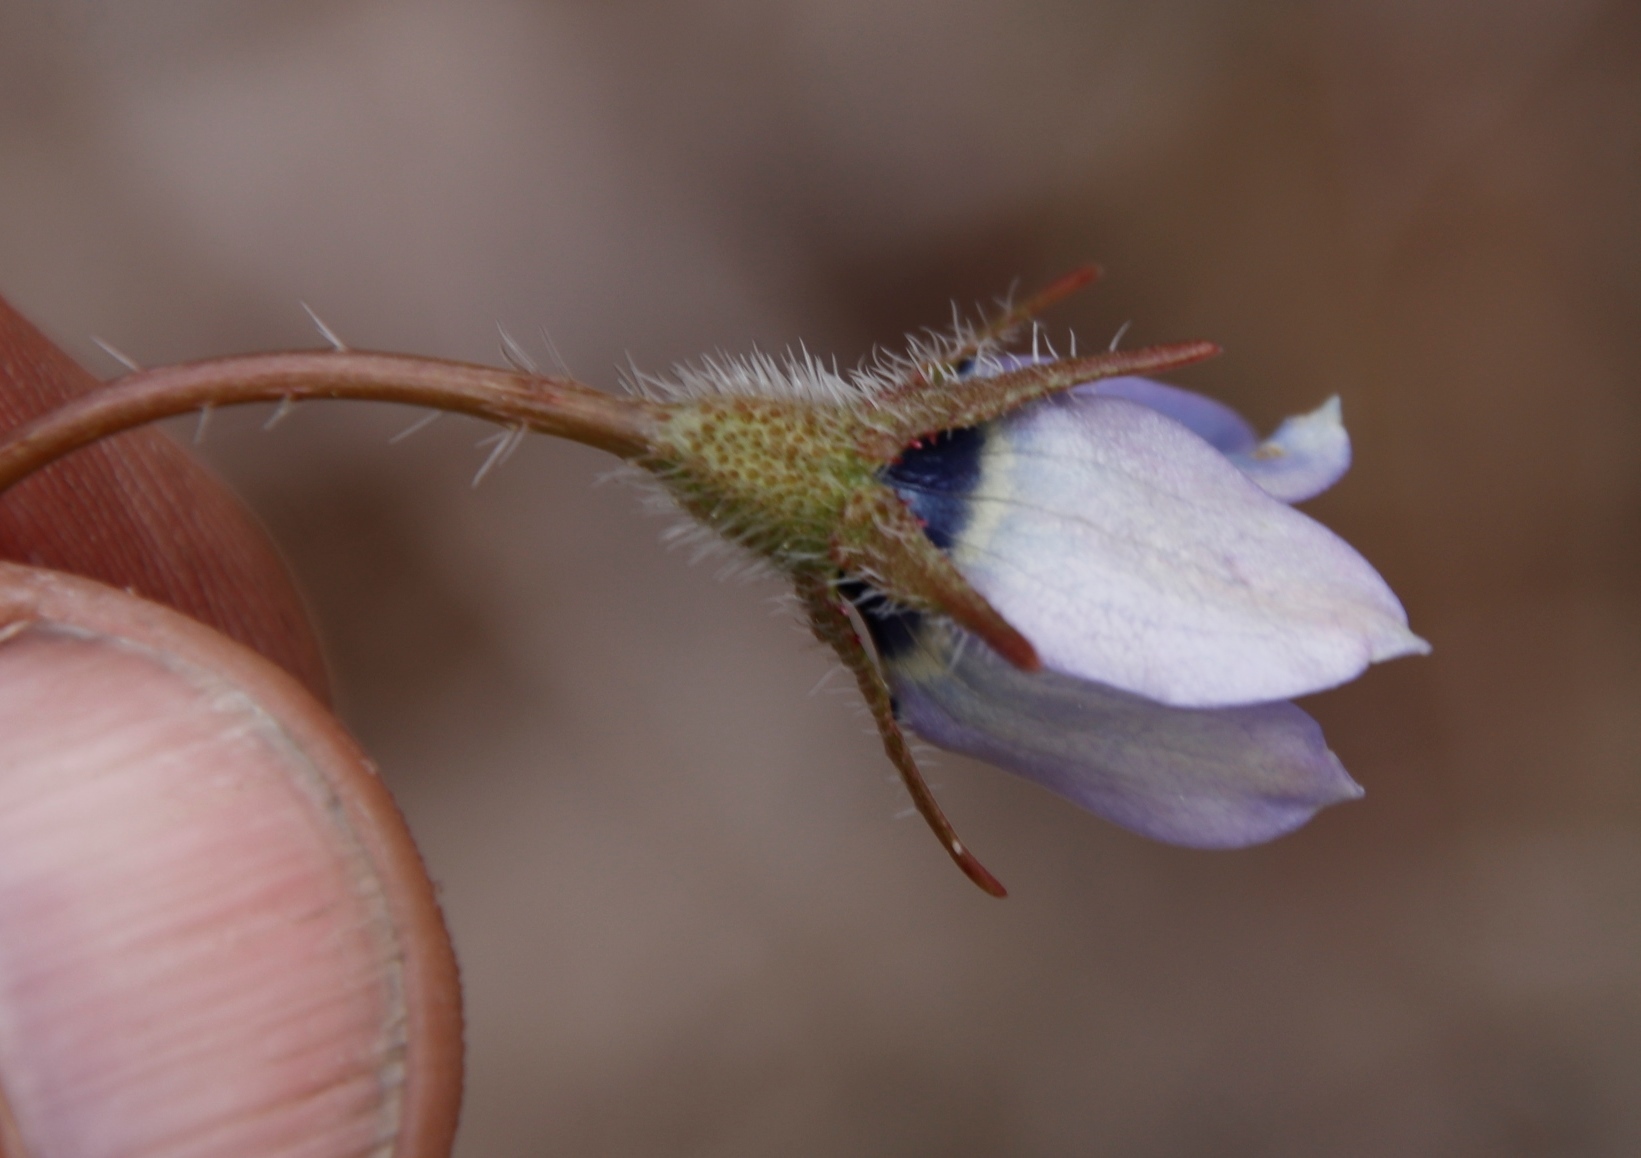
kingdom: Plantae
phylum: Tracheophyta
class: Magnoliopsida
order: Asterales
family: Campanulaceae
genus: Wahlenbergia
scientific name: Wahlenbergia capensis
